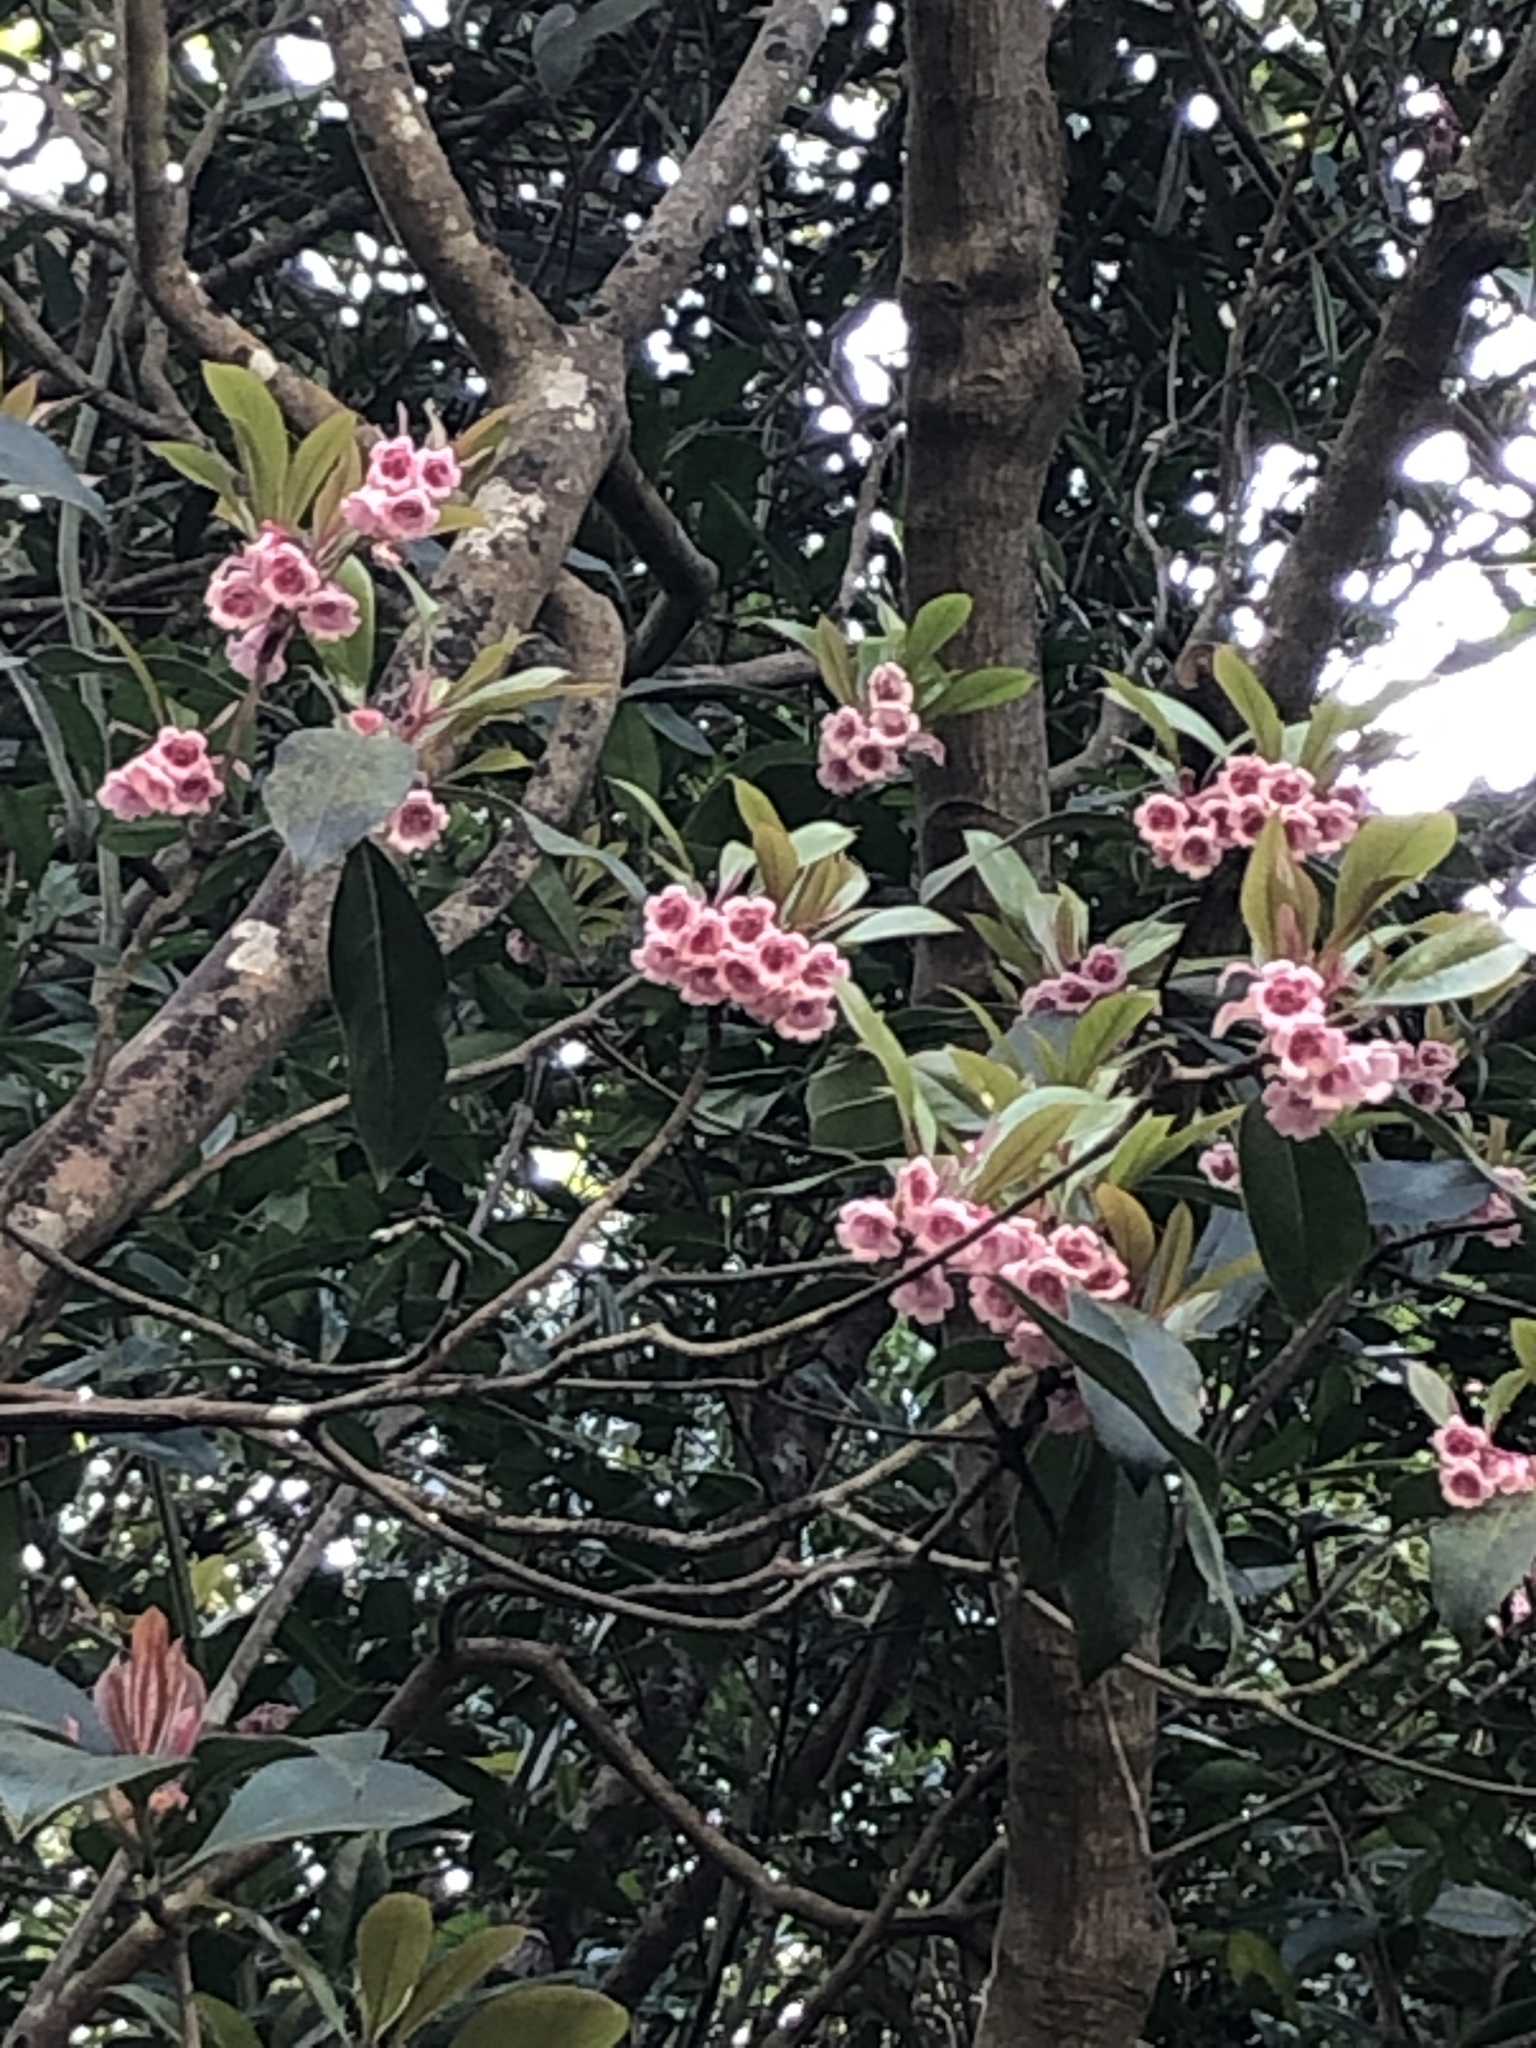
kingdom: Plantae
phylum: Tracheophyta
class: Magnoliopsida
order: Ericales
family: Ericaceae
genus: Enkianthus
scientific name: Enkianthus quinqueflorus
